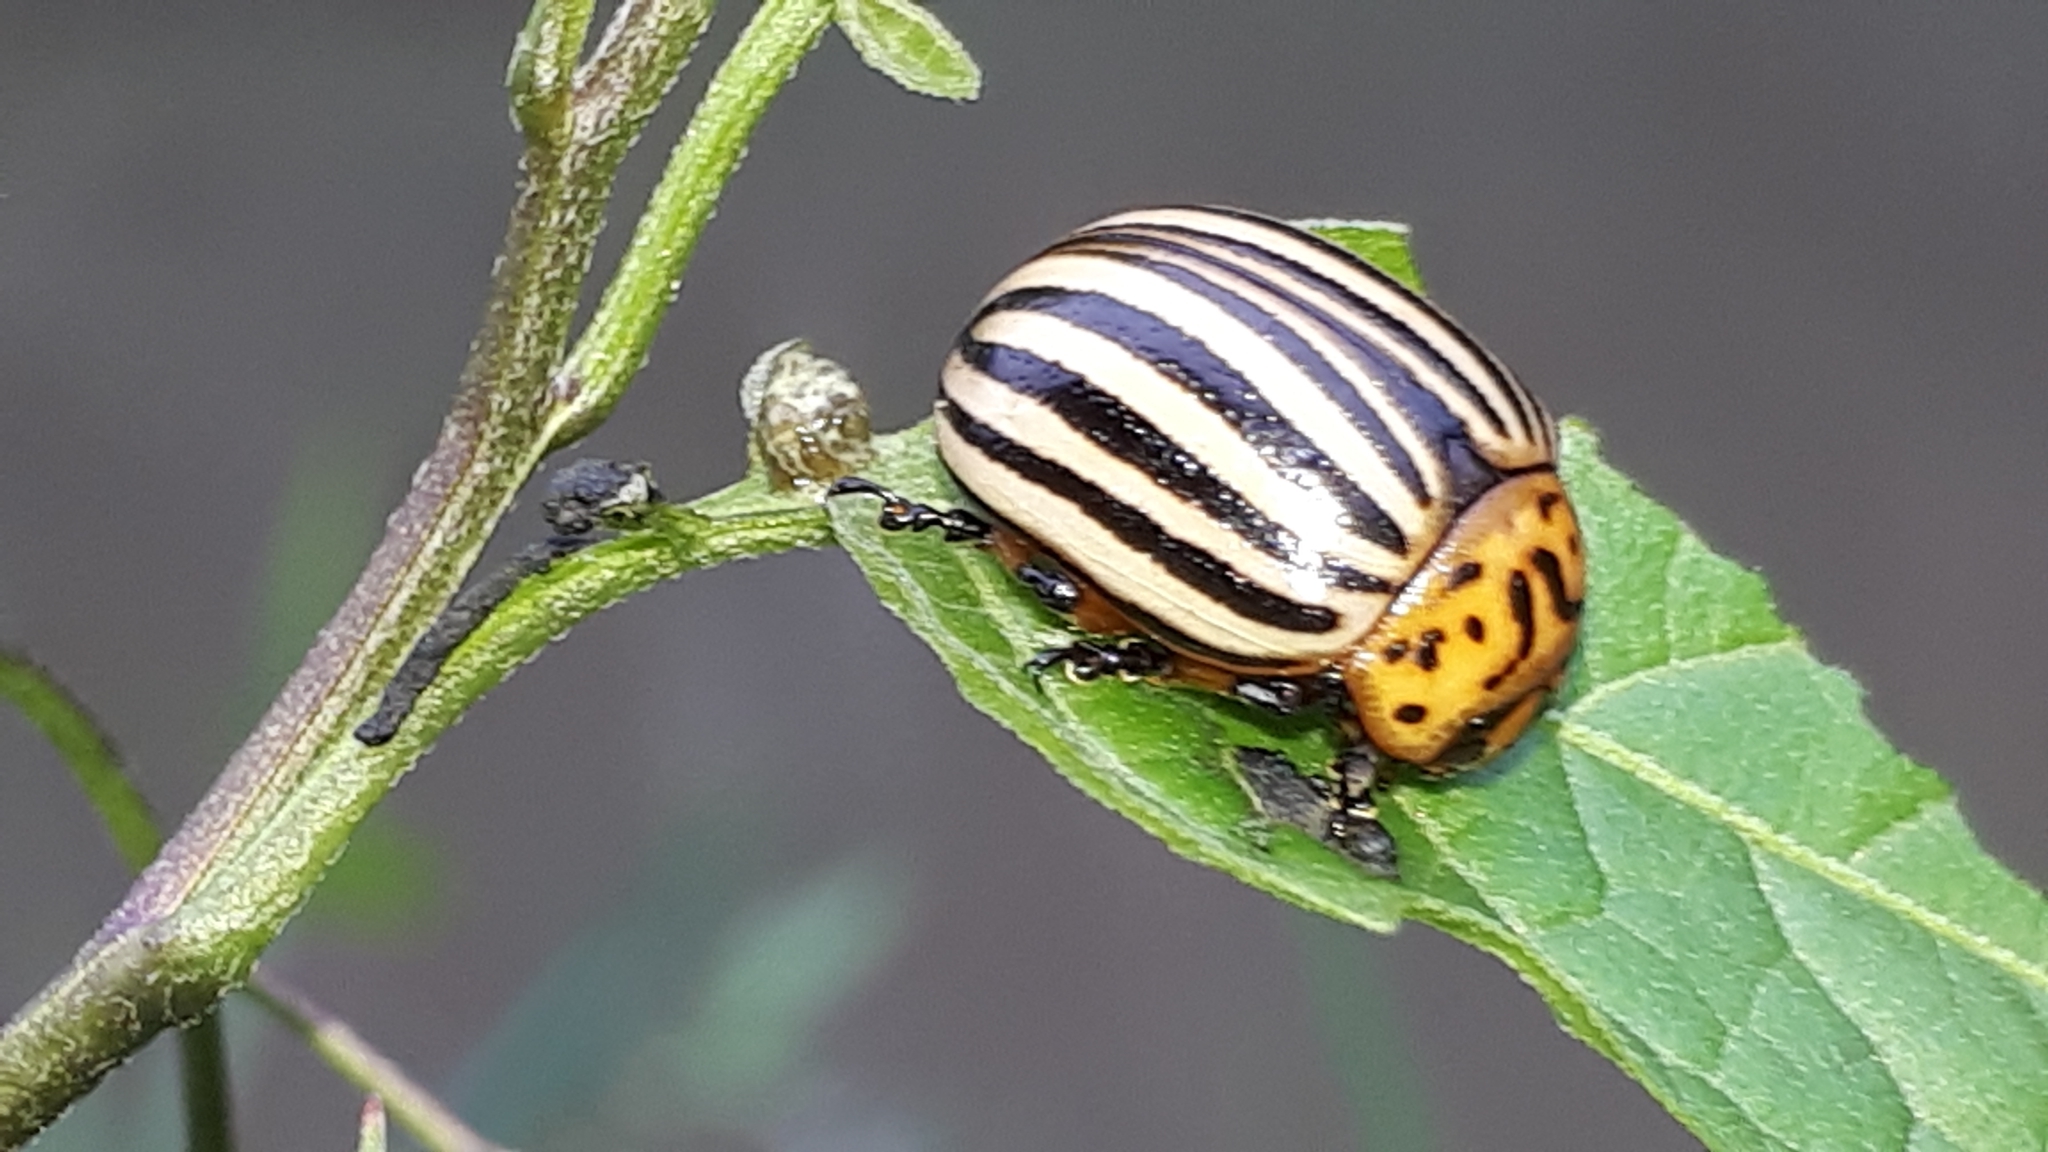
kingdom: Animalia
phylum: Arthropoda
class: Insecta
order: Coleoptera
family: Chrysomelidae
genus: Leptinotarsa
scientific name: Leptinotarsa decemlineata
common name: Colorado potato beetle
